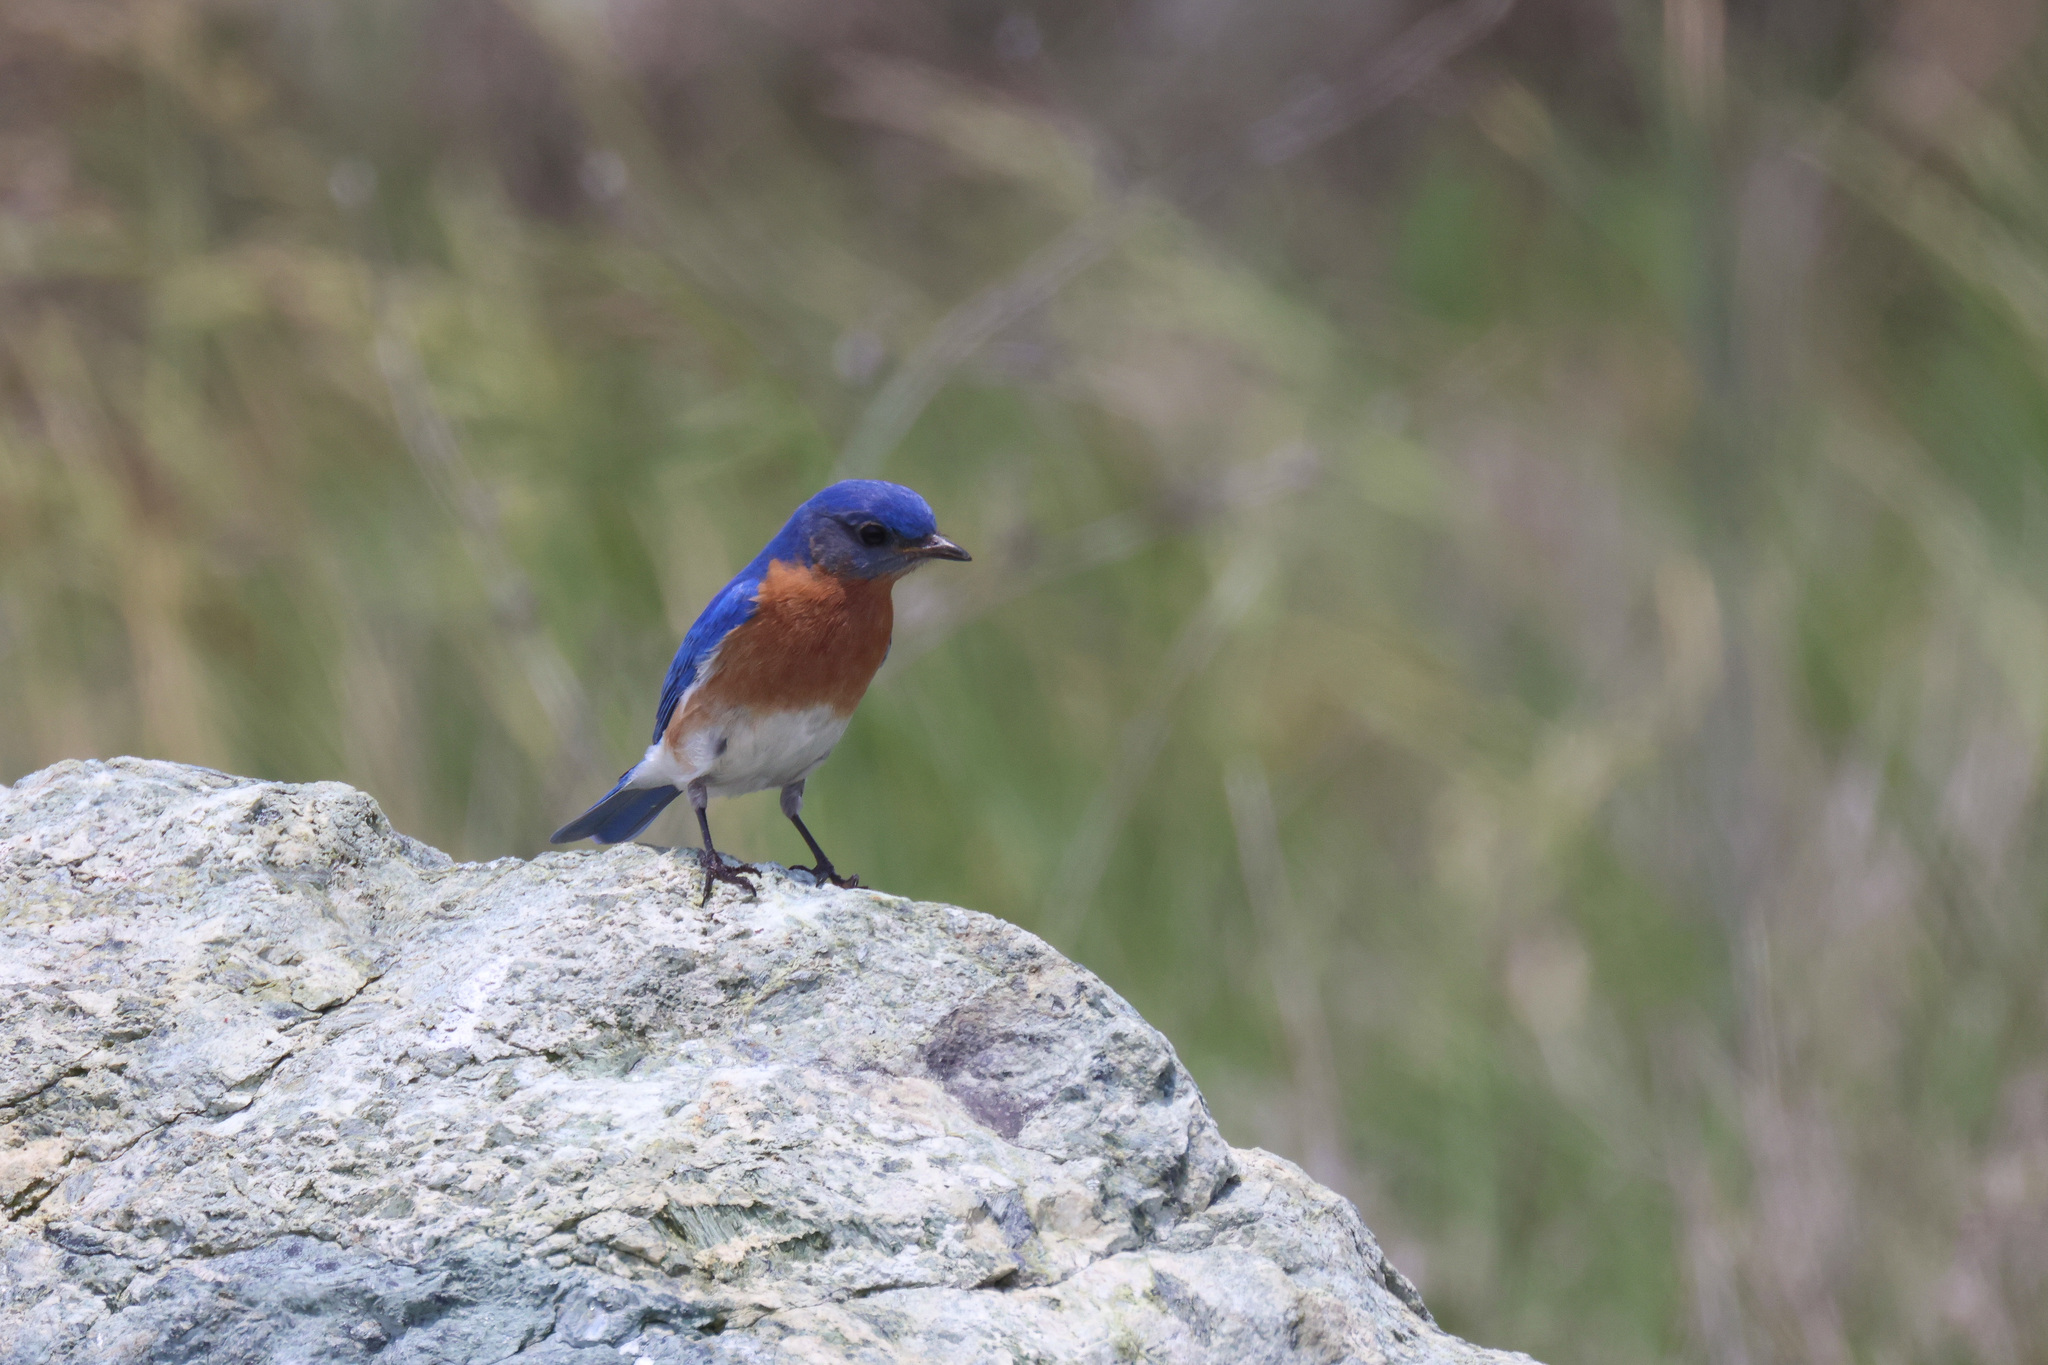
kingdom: Animalia
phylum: Chordata
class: Aves
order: Passeriformes
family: Turdidae
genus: Sialia
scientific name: Sialia sialis
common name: Eastern bluebird
